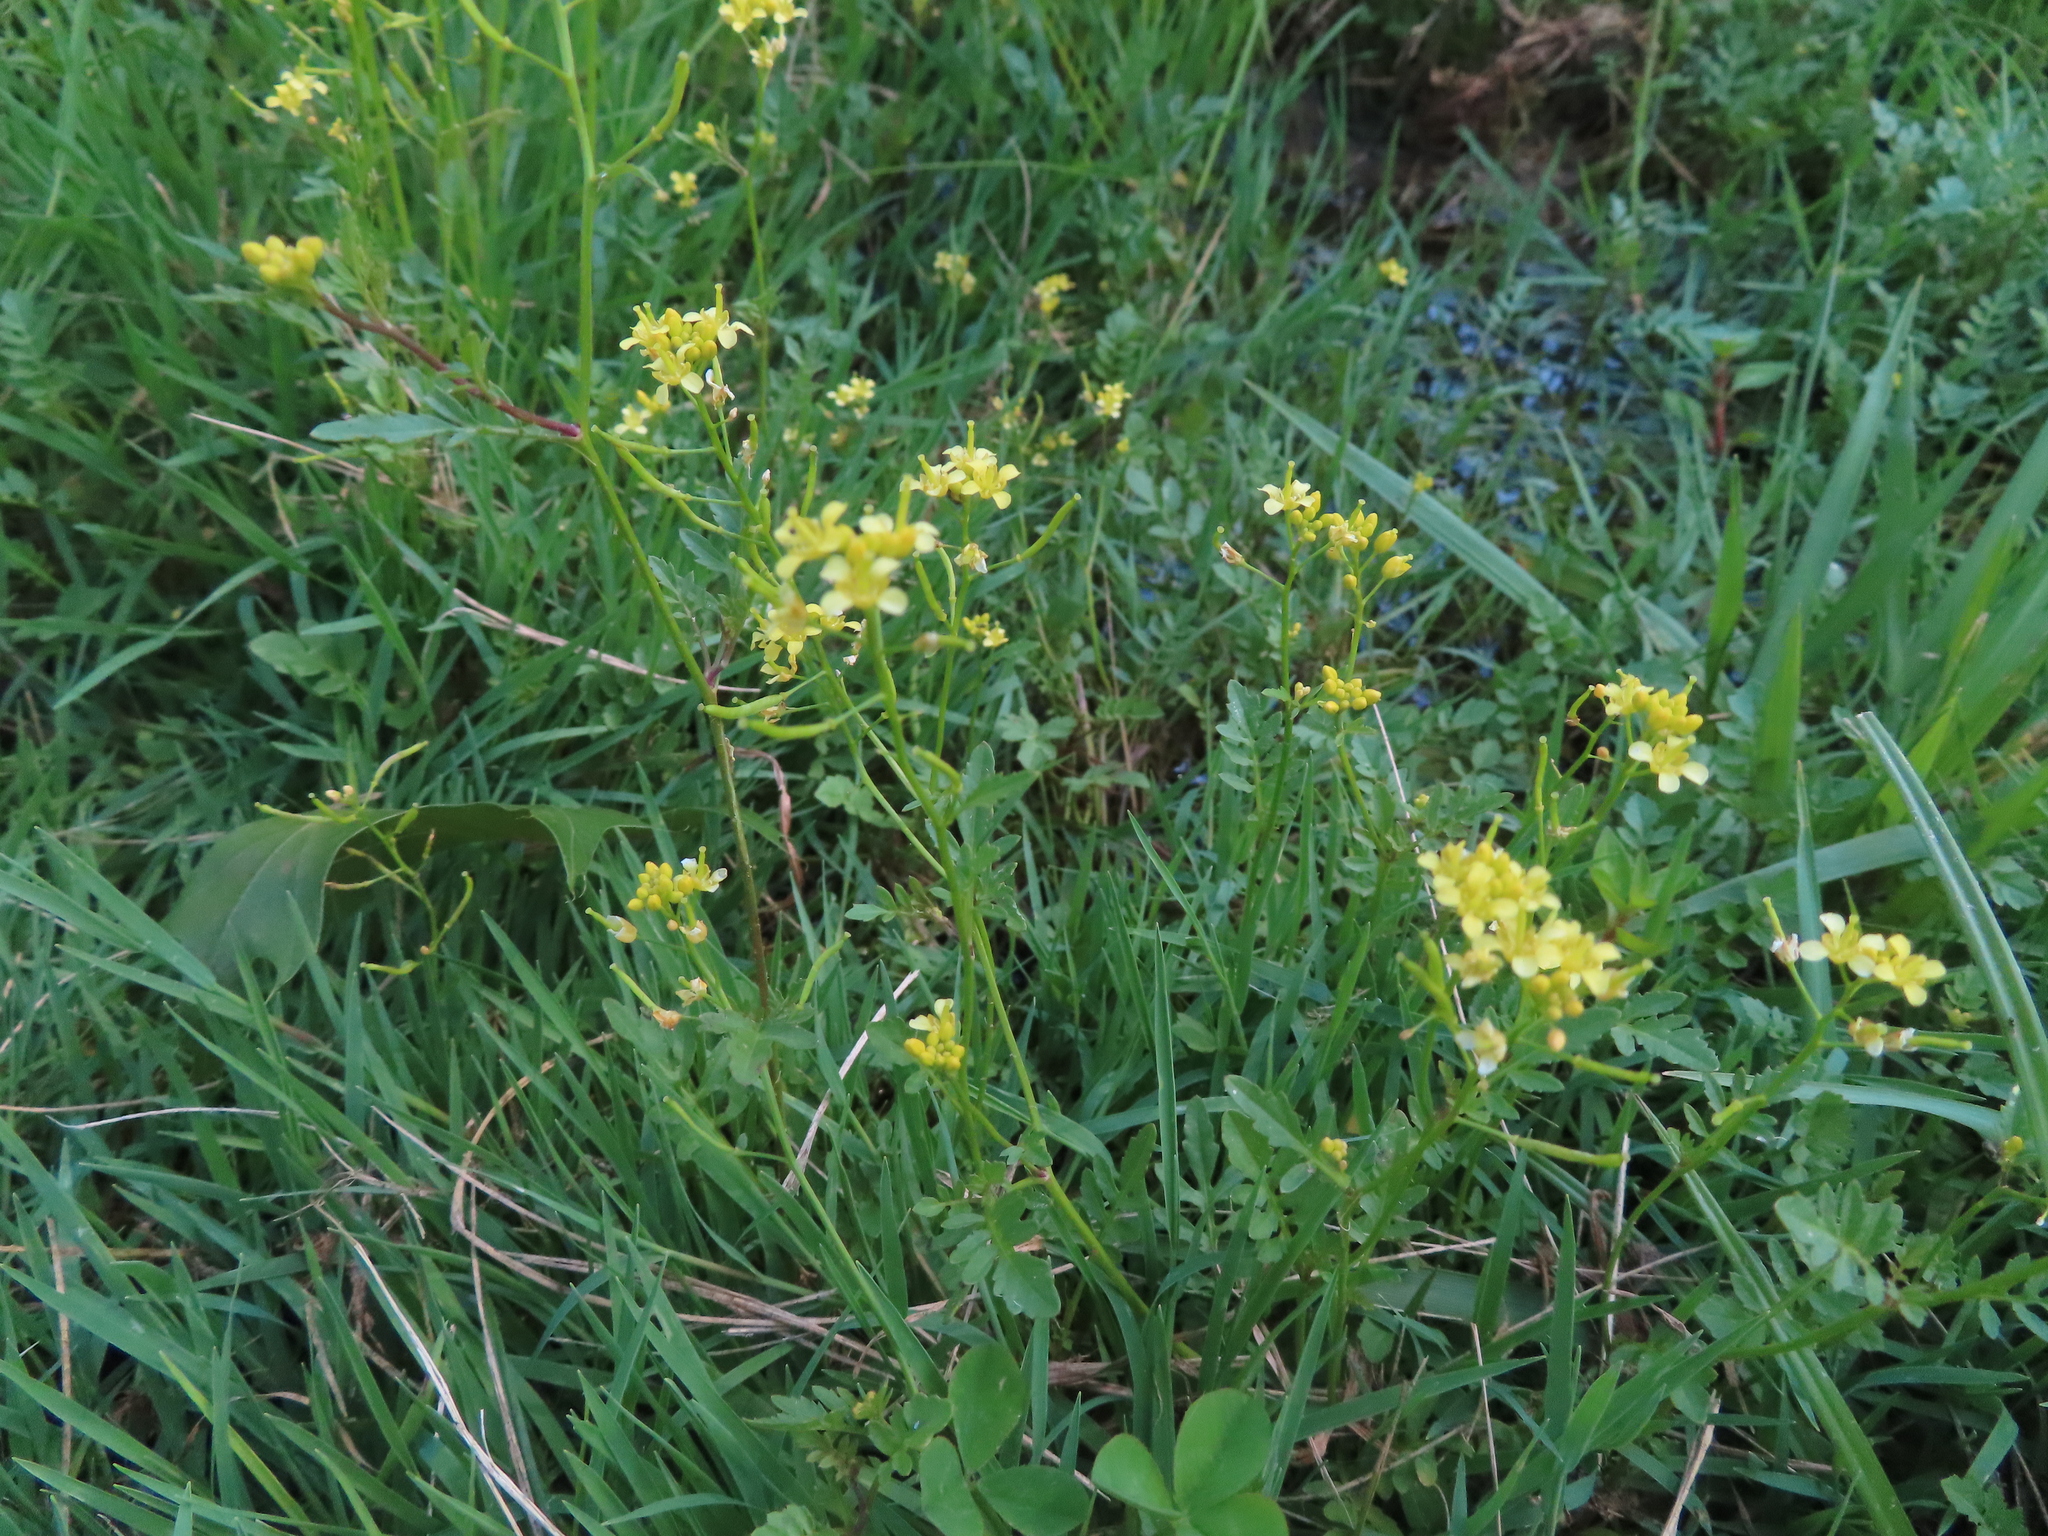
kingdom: Plantae
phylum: Tracheophyta
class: Magnoliopsida
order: Brassicales
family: Brassicaceae
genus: Rorippa
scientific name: Rorippa sylvestris
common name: Creeping yellowcress
